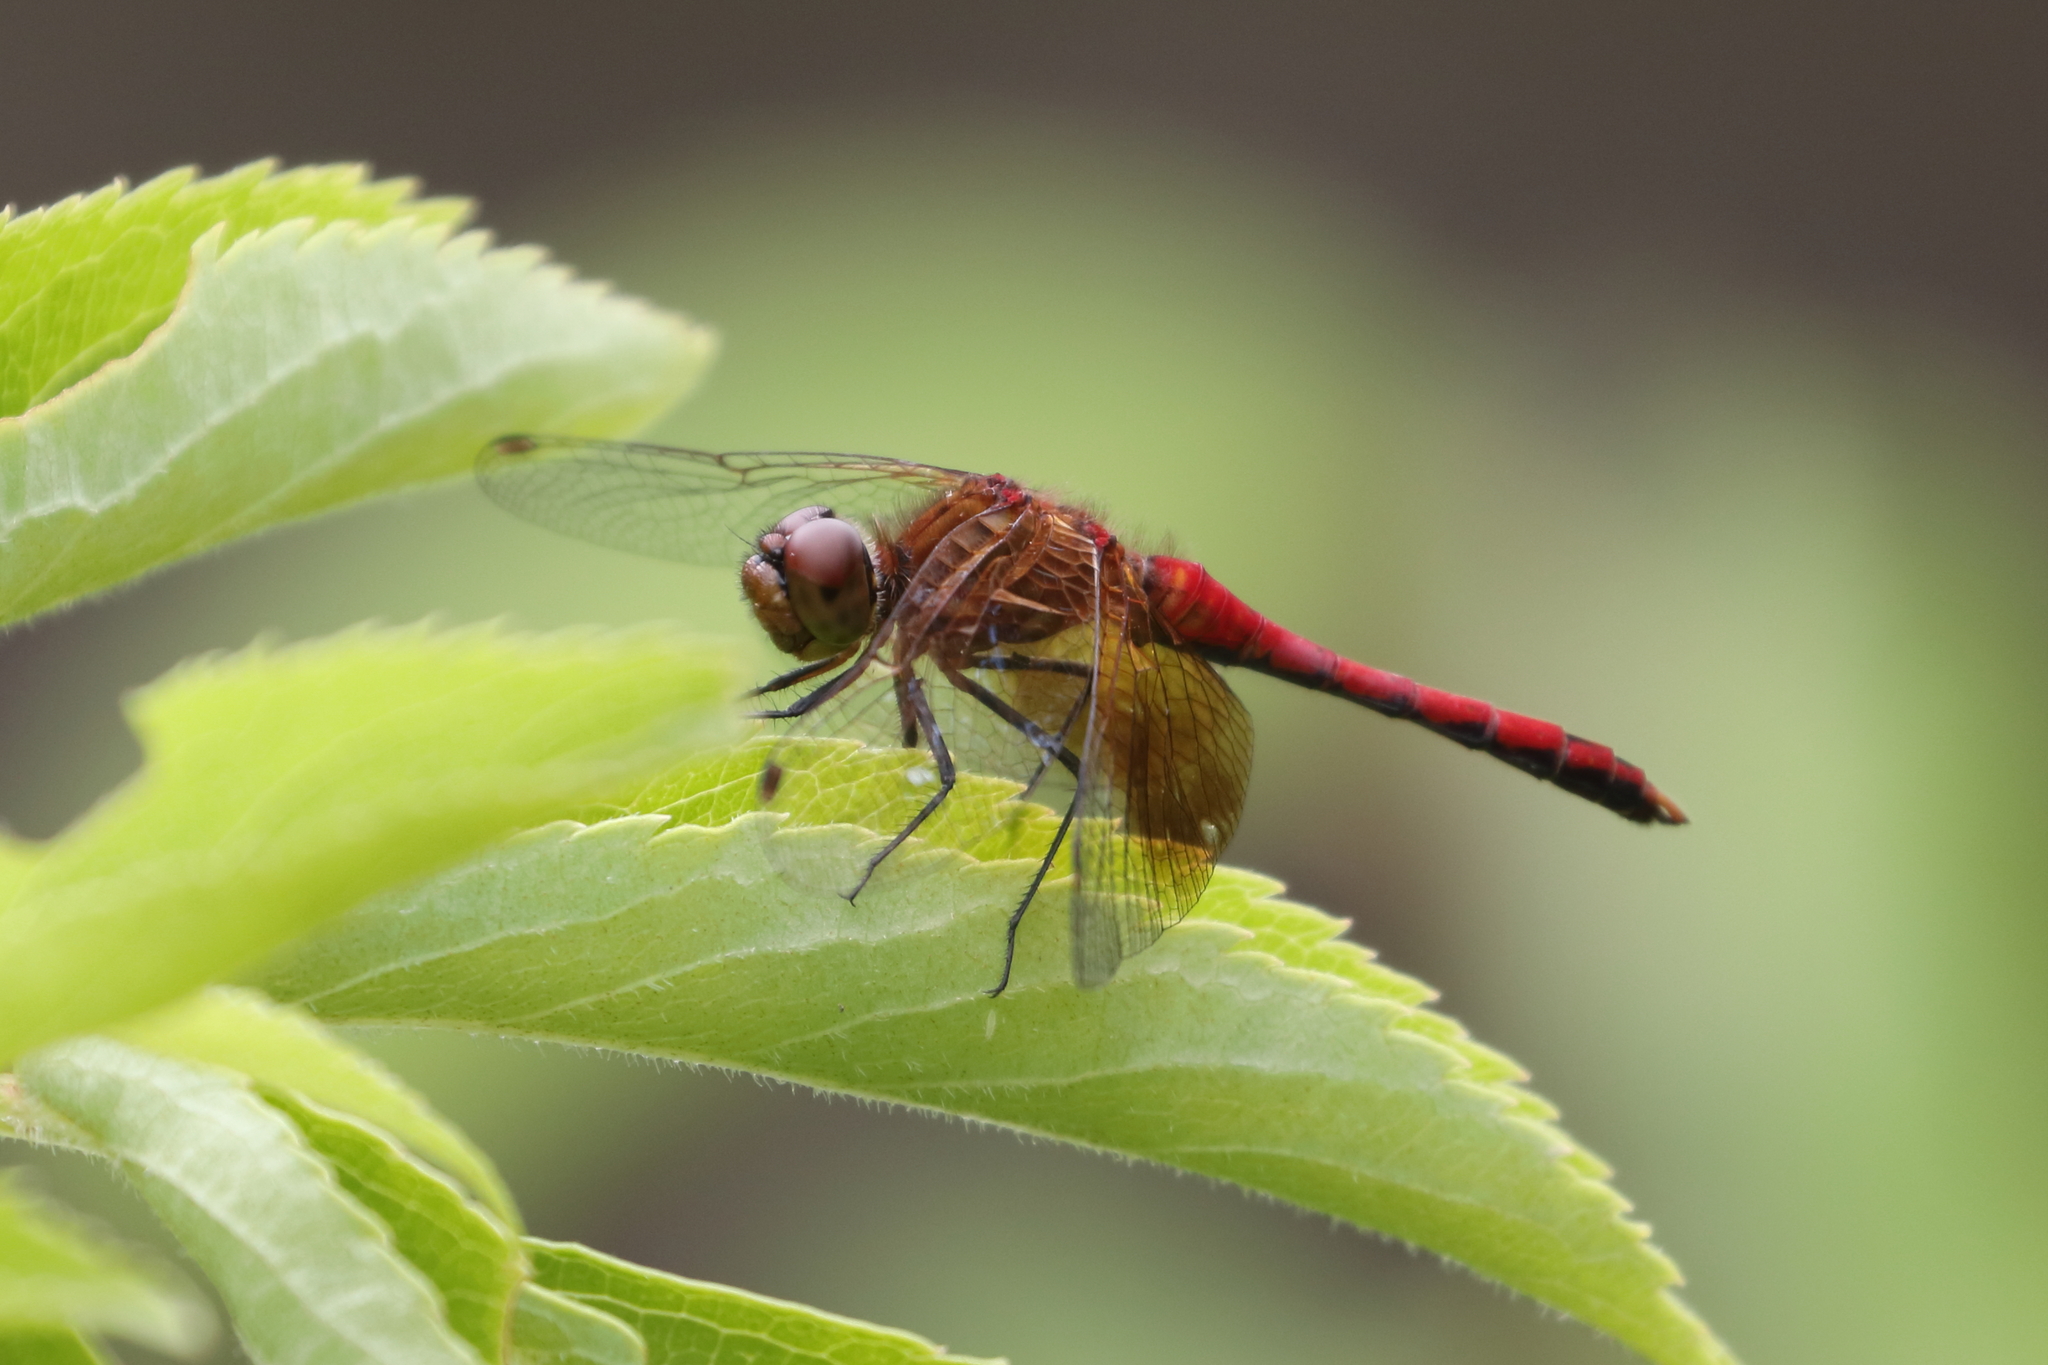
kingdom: Animalia
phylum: Arthropoda
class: Insecta
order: Odonata
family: Libellulidae
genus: Sympetrum
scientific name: Sympetrum semicinctum
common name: Band-winged meadowhawk
